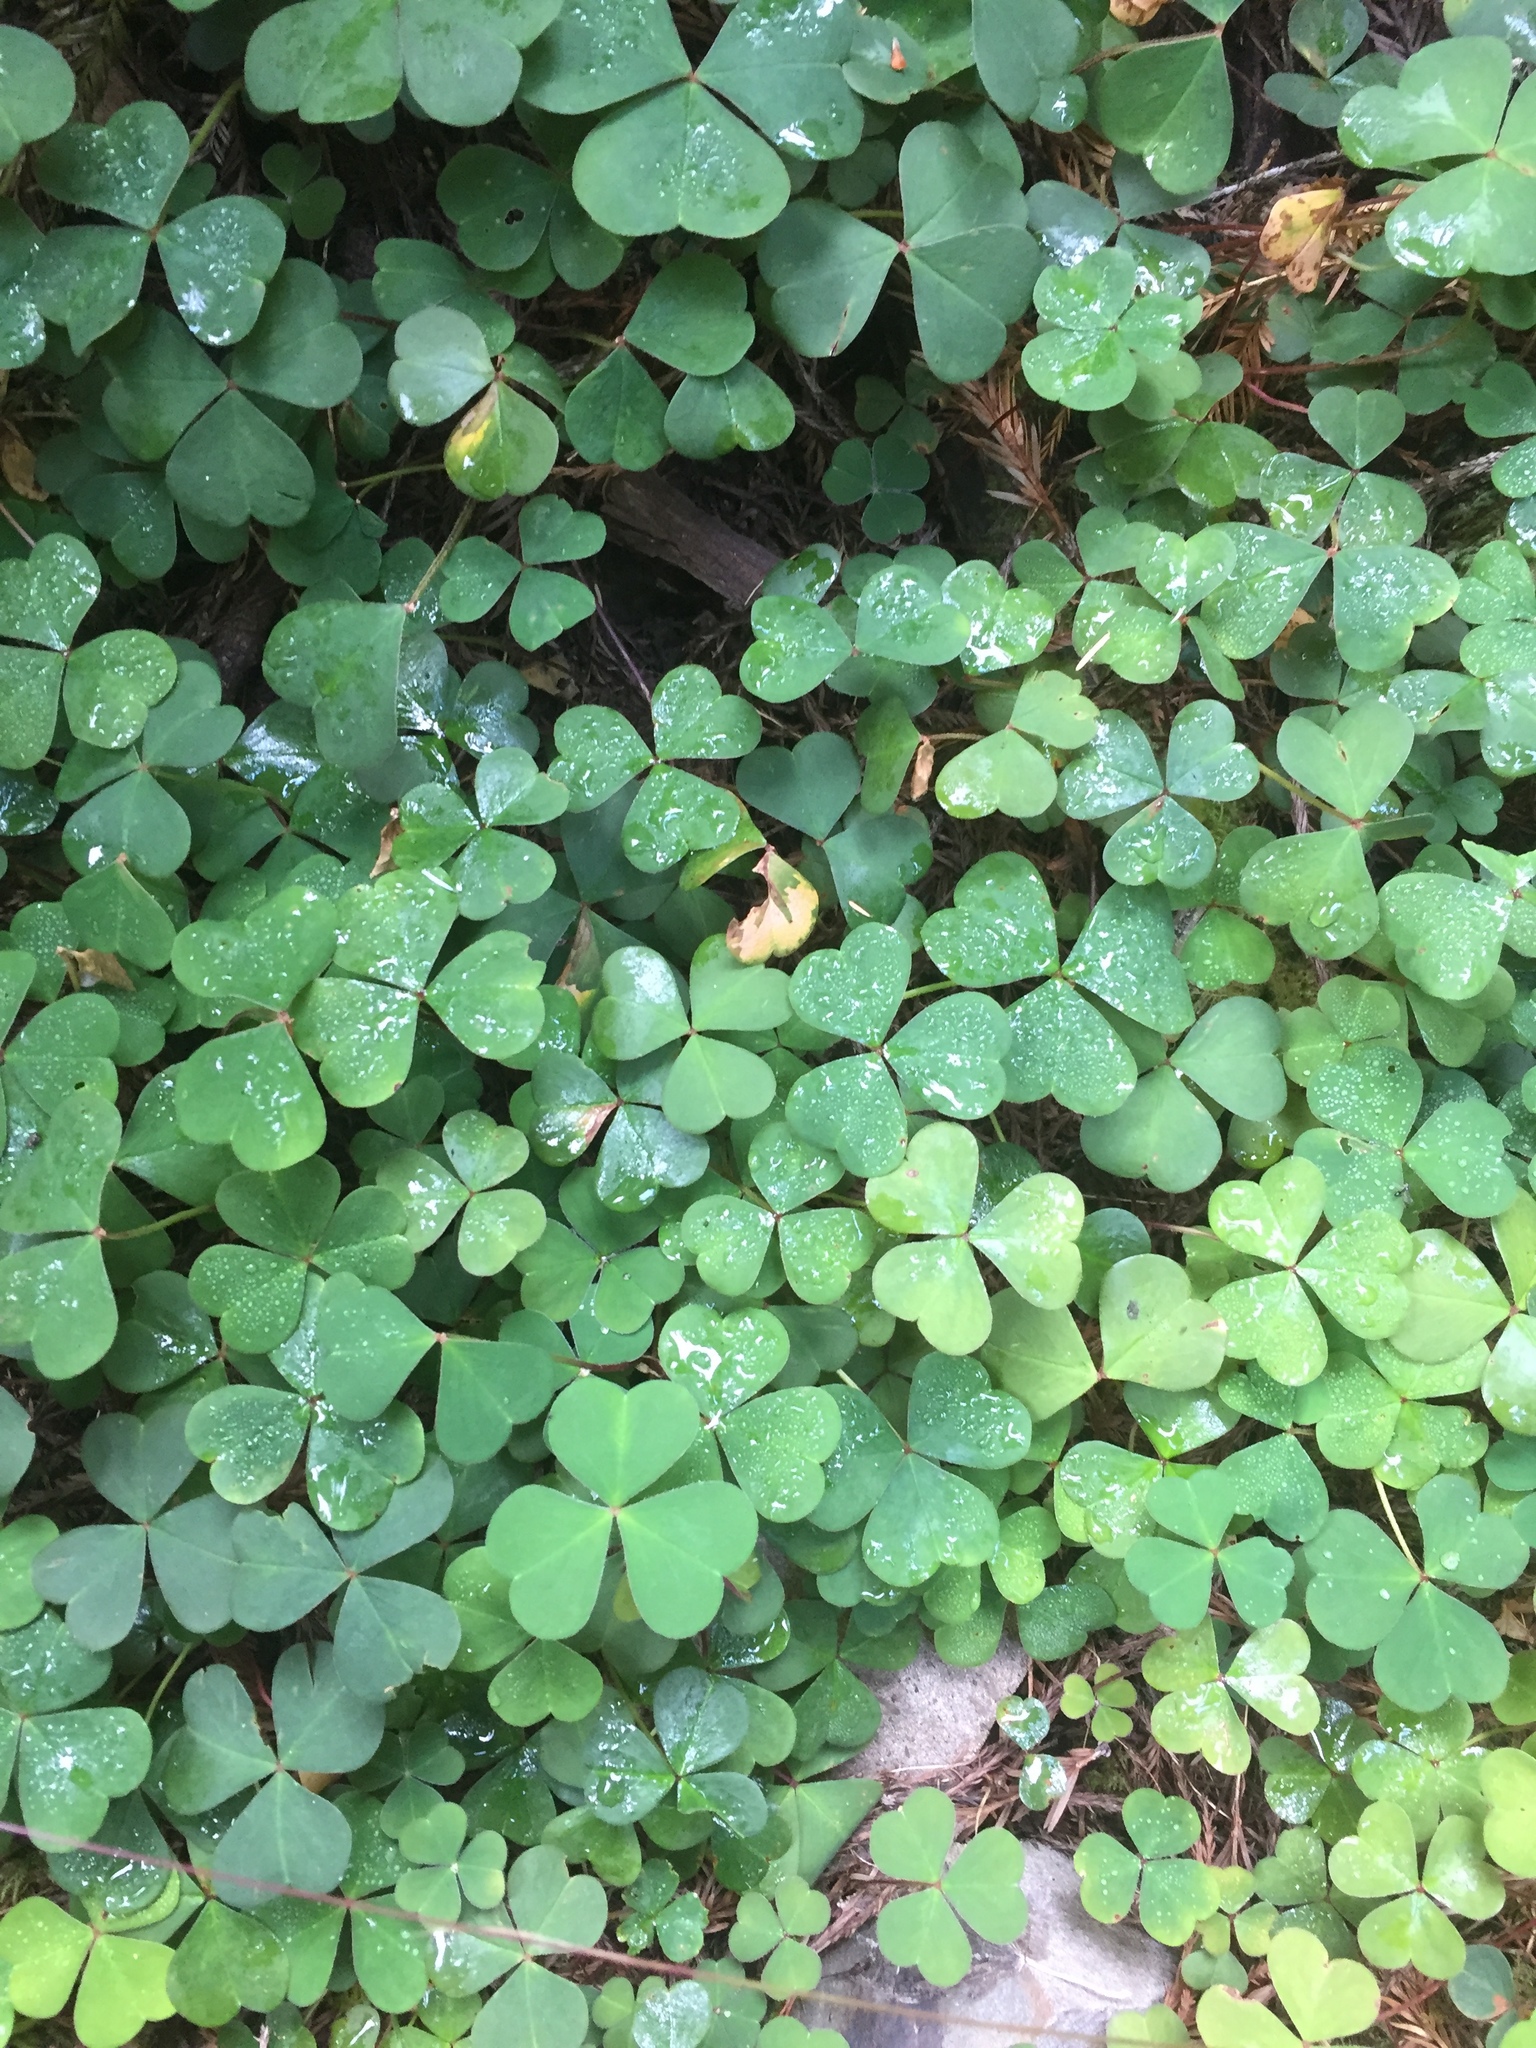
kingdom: Plantae
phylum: Tracheophyta
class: Magnoliopsida
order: Oxalidales
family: Oxalidaceae
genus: Oxalis
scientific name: Oxalis oregana
